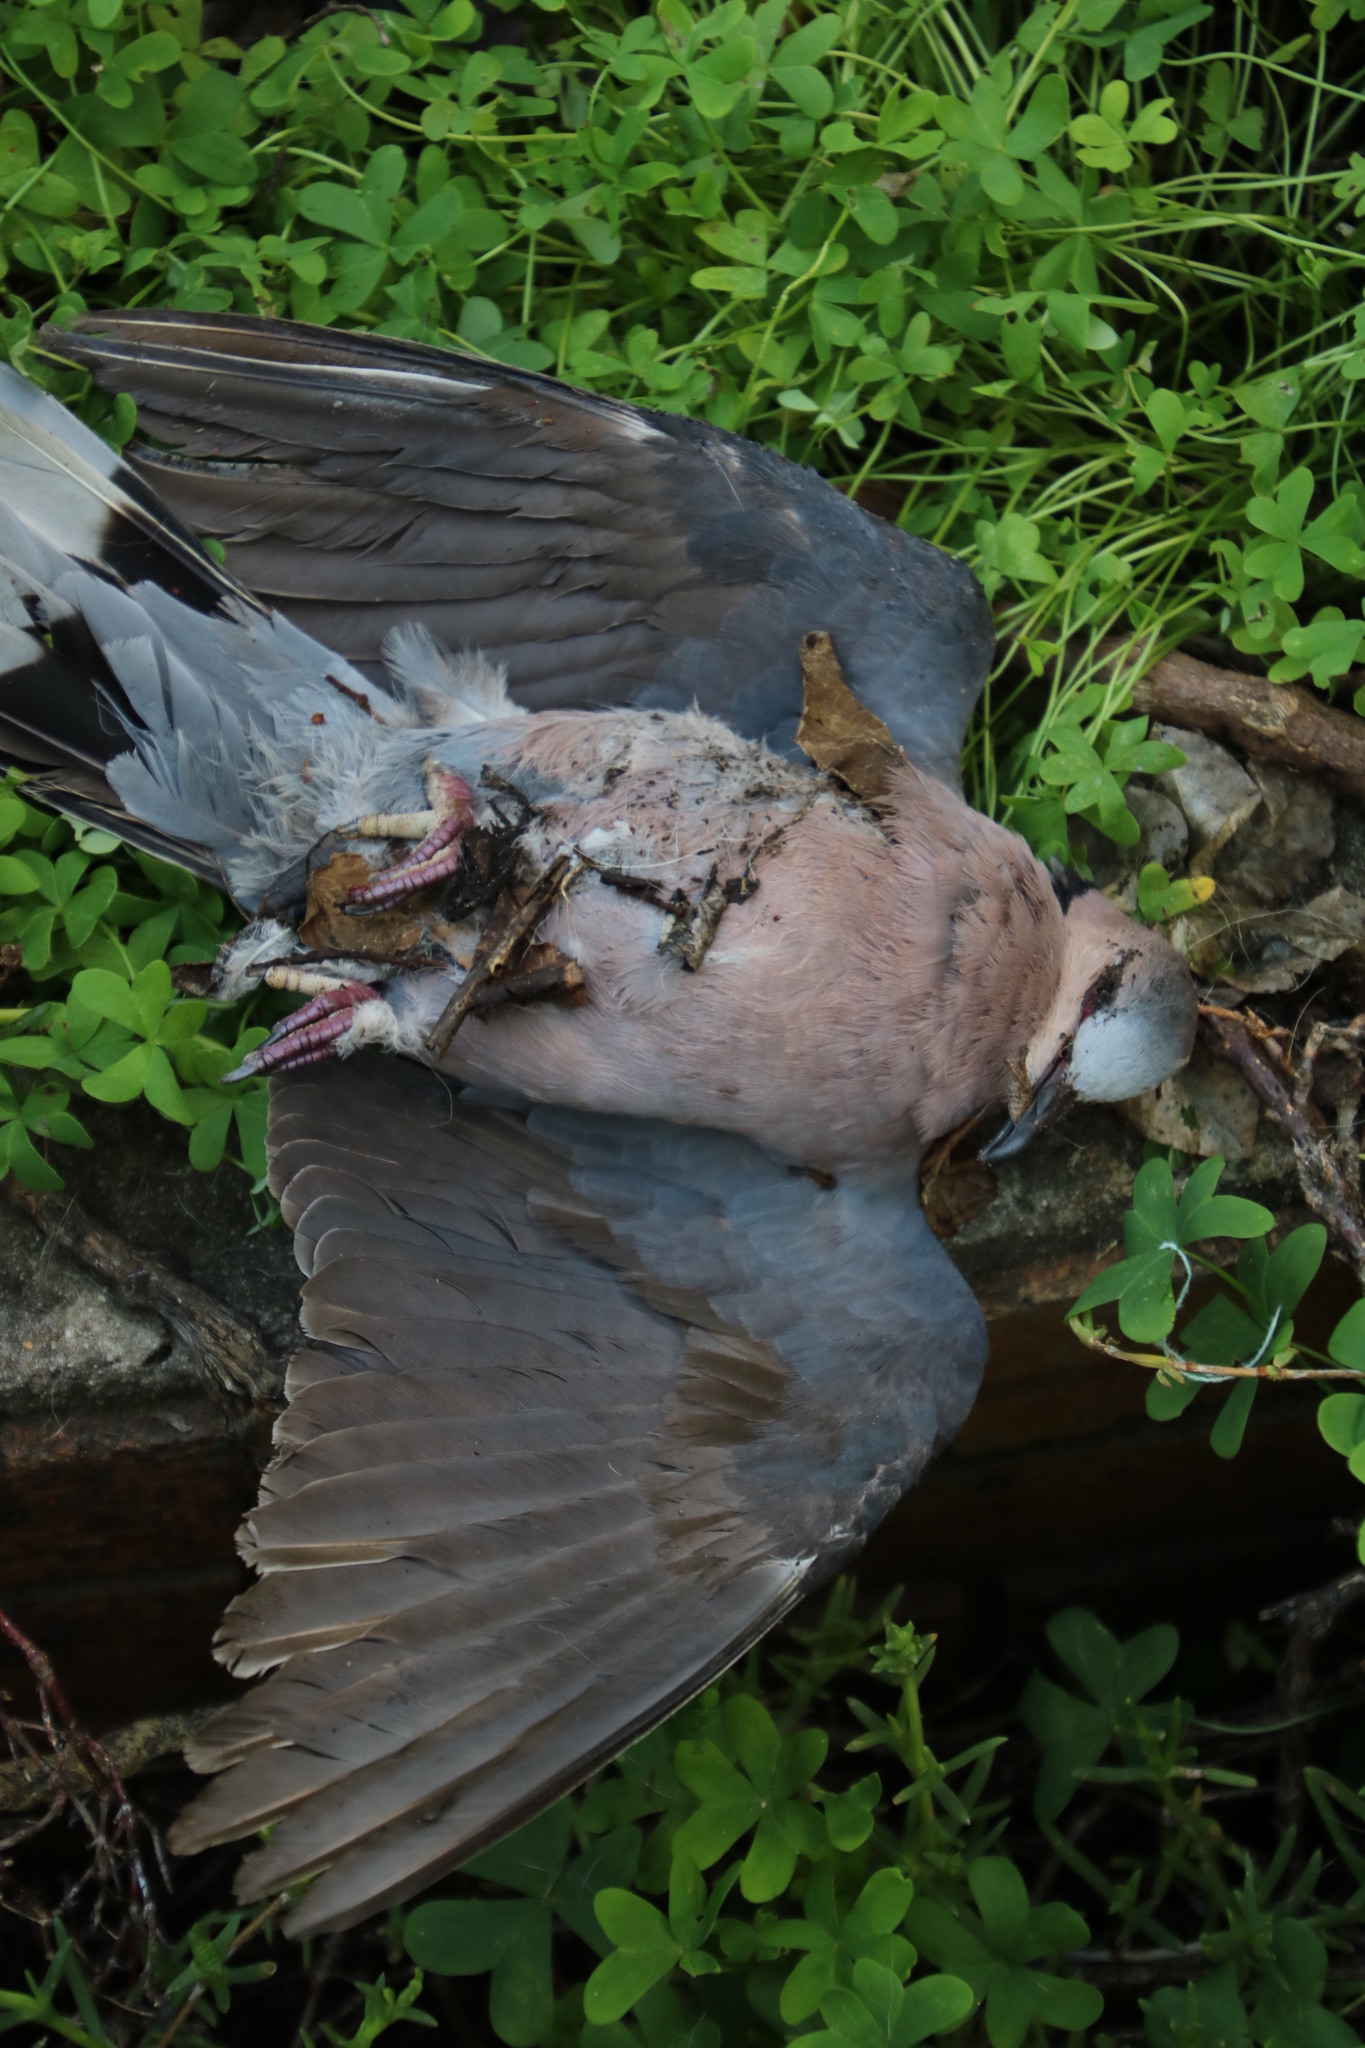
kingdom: Animalia
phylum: Chordata
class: Aves
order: Columbiformes
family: Columbidae
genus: Streptopelia
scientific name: Streptopelia semitorquata
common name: Red-eyed dove
